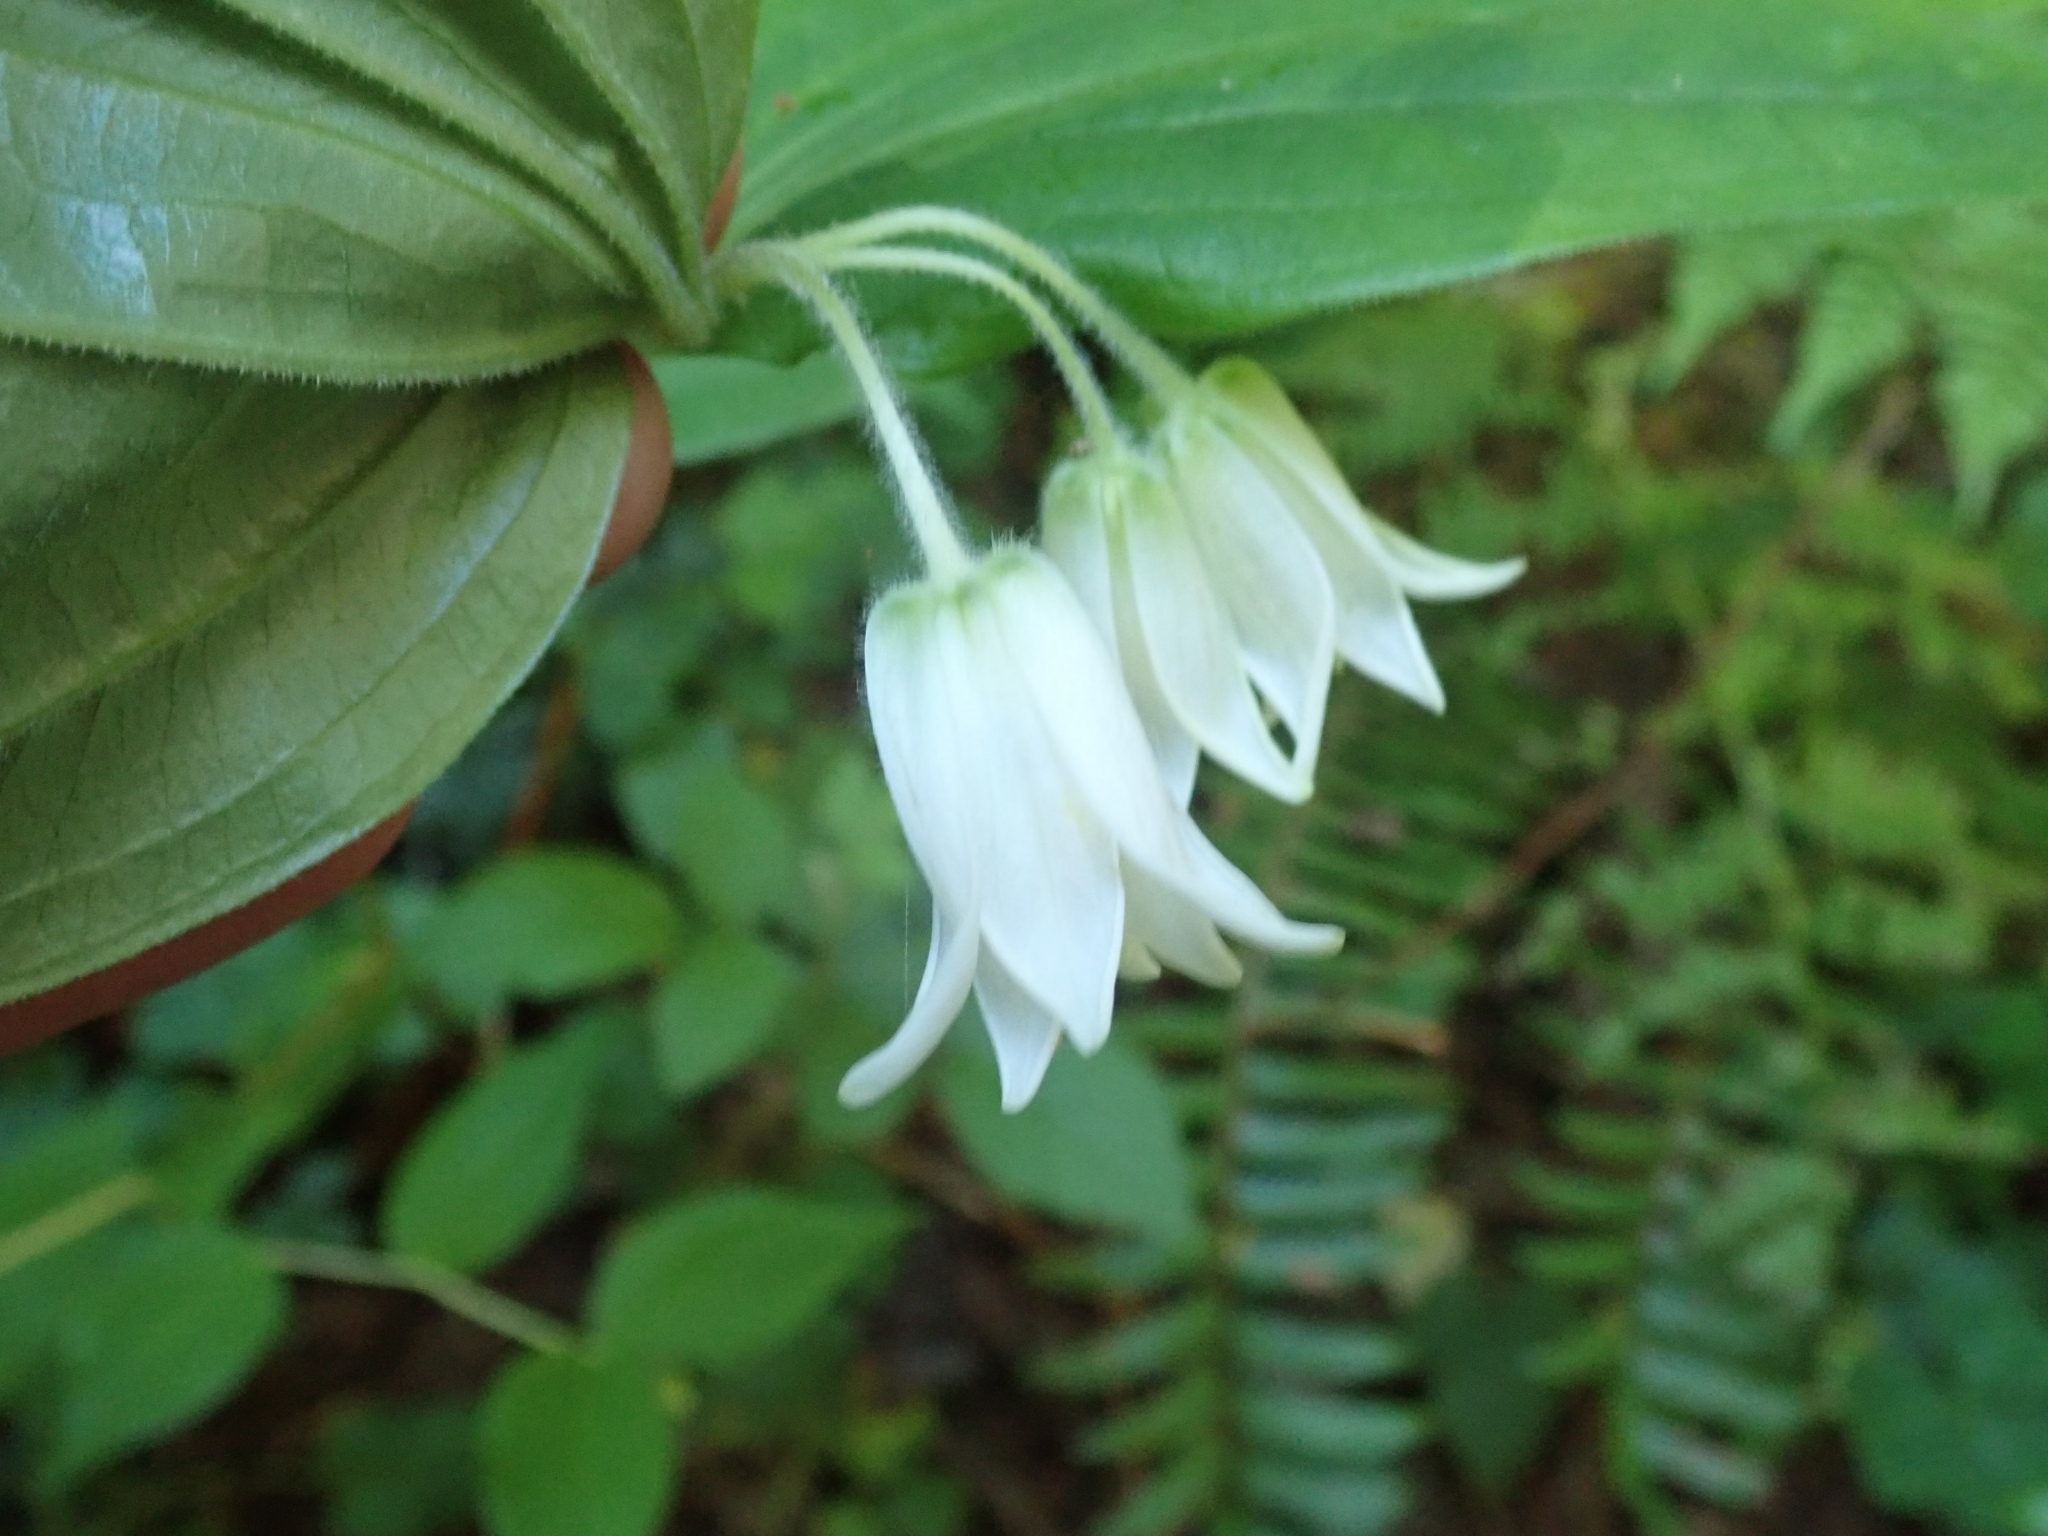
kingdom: Plantae
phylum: Tracheophyta
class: Liliopsida
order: Liliales
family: Liliaceae
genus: Prosartes
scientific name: Prosartes smithii
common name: Fairy-lantern
